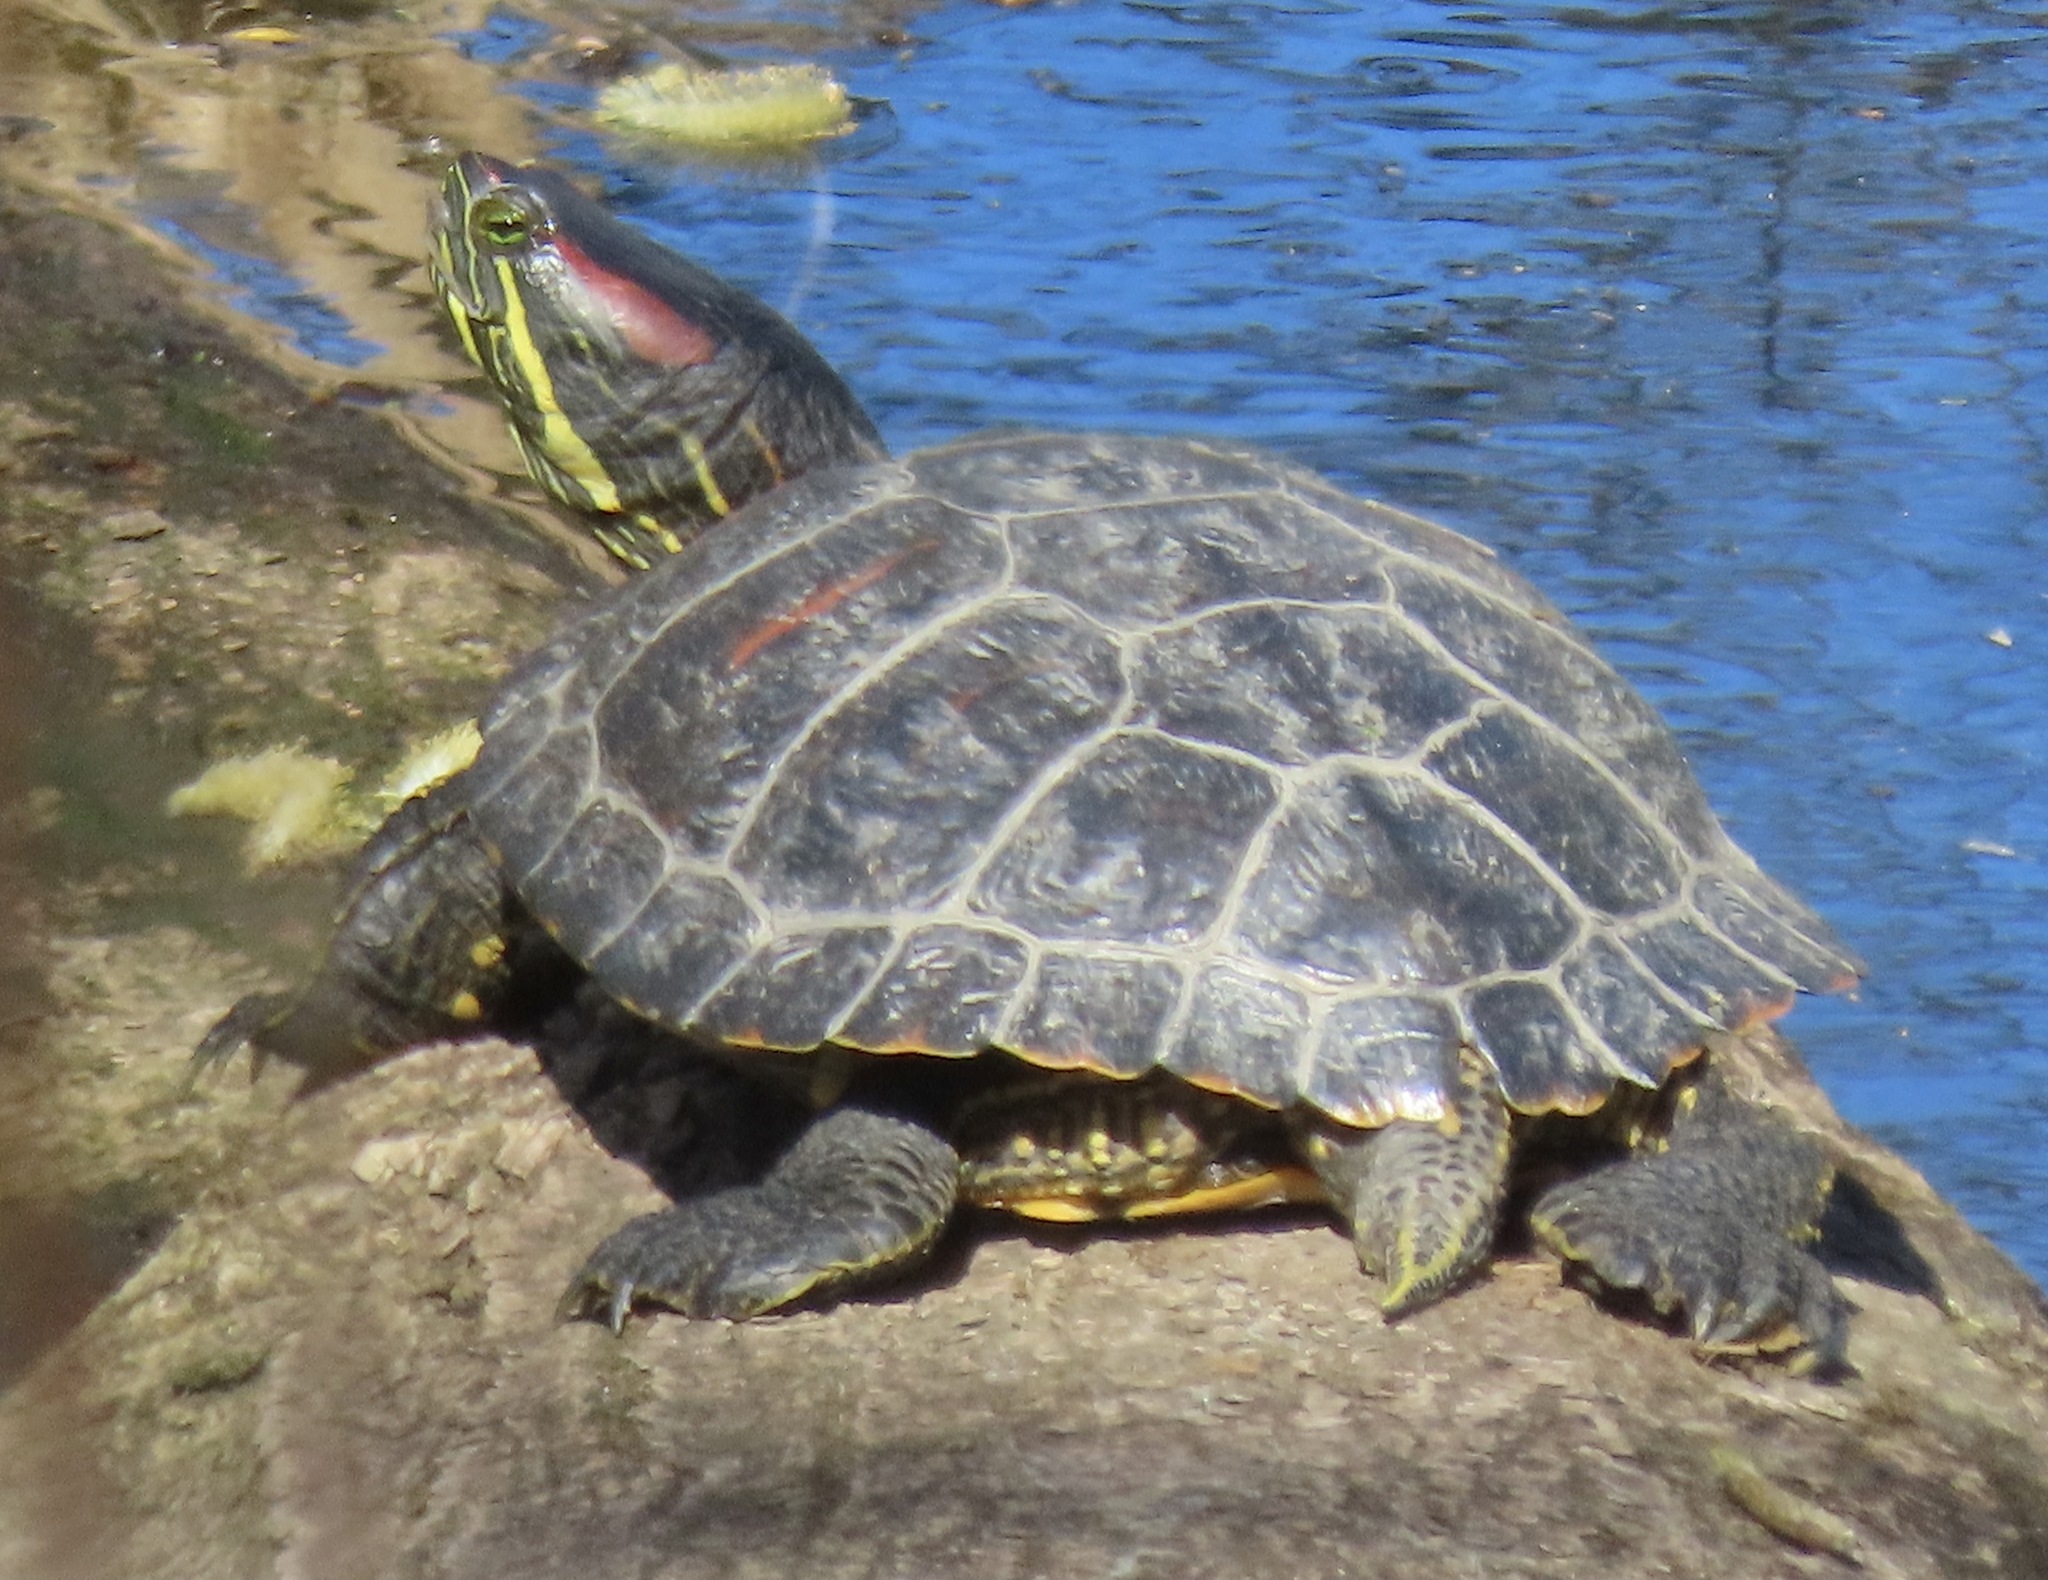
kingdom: Animalia
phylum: Chordata
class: Testudines
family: Emydidae
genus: Trachemys
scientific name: Trachemys scripta
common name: Slider
